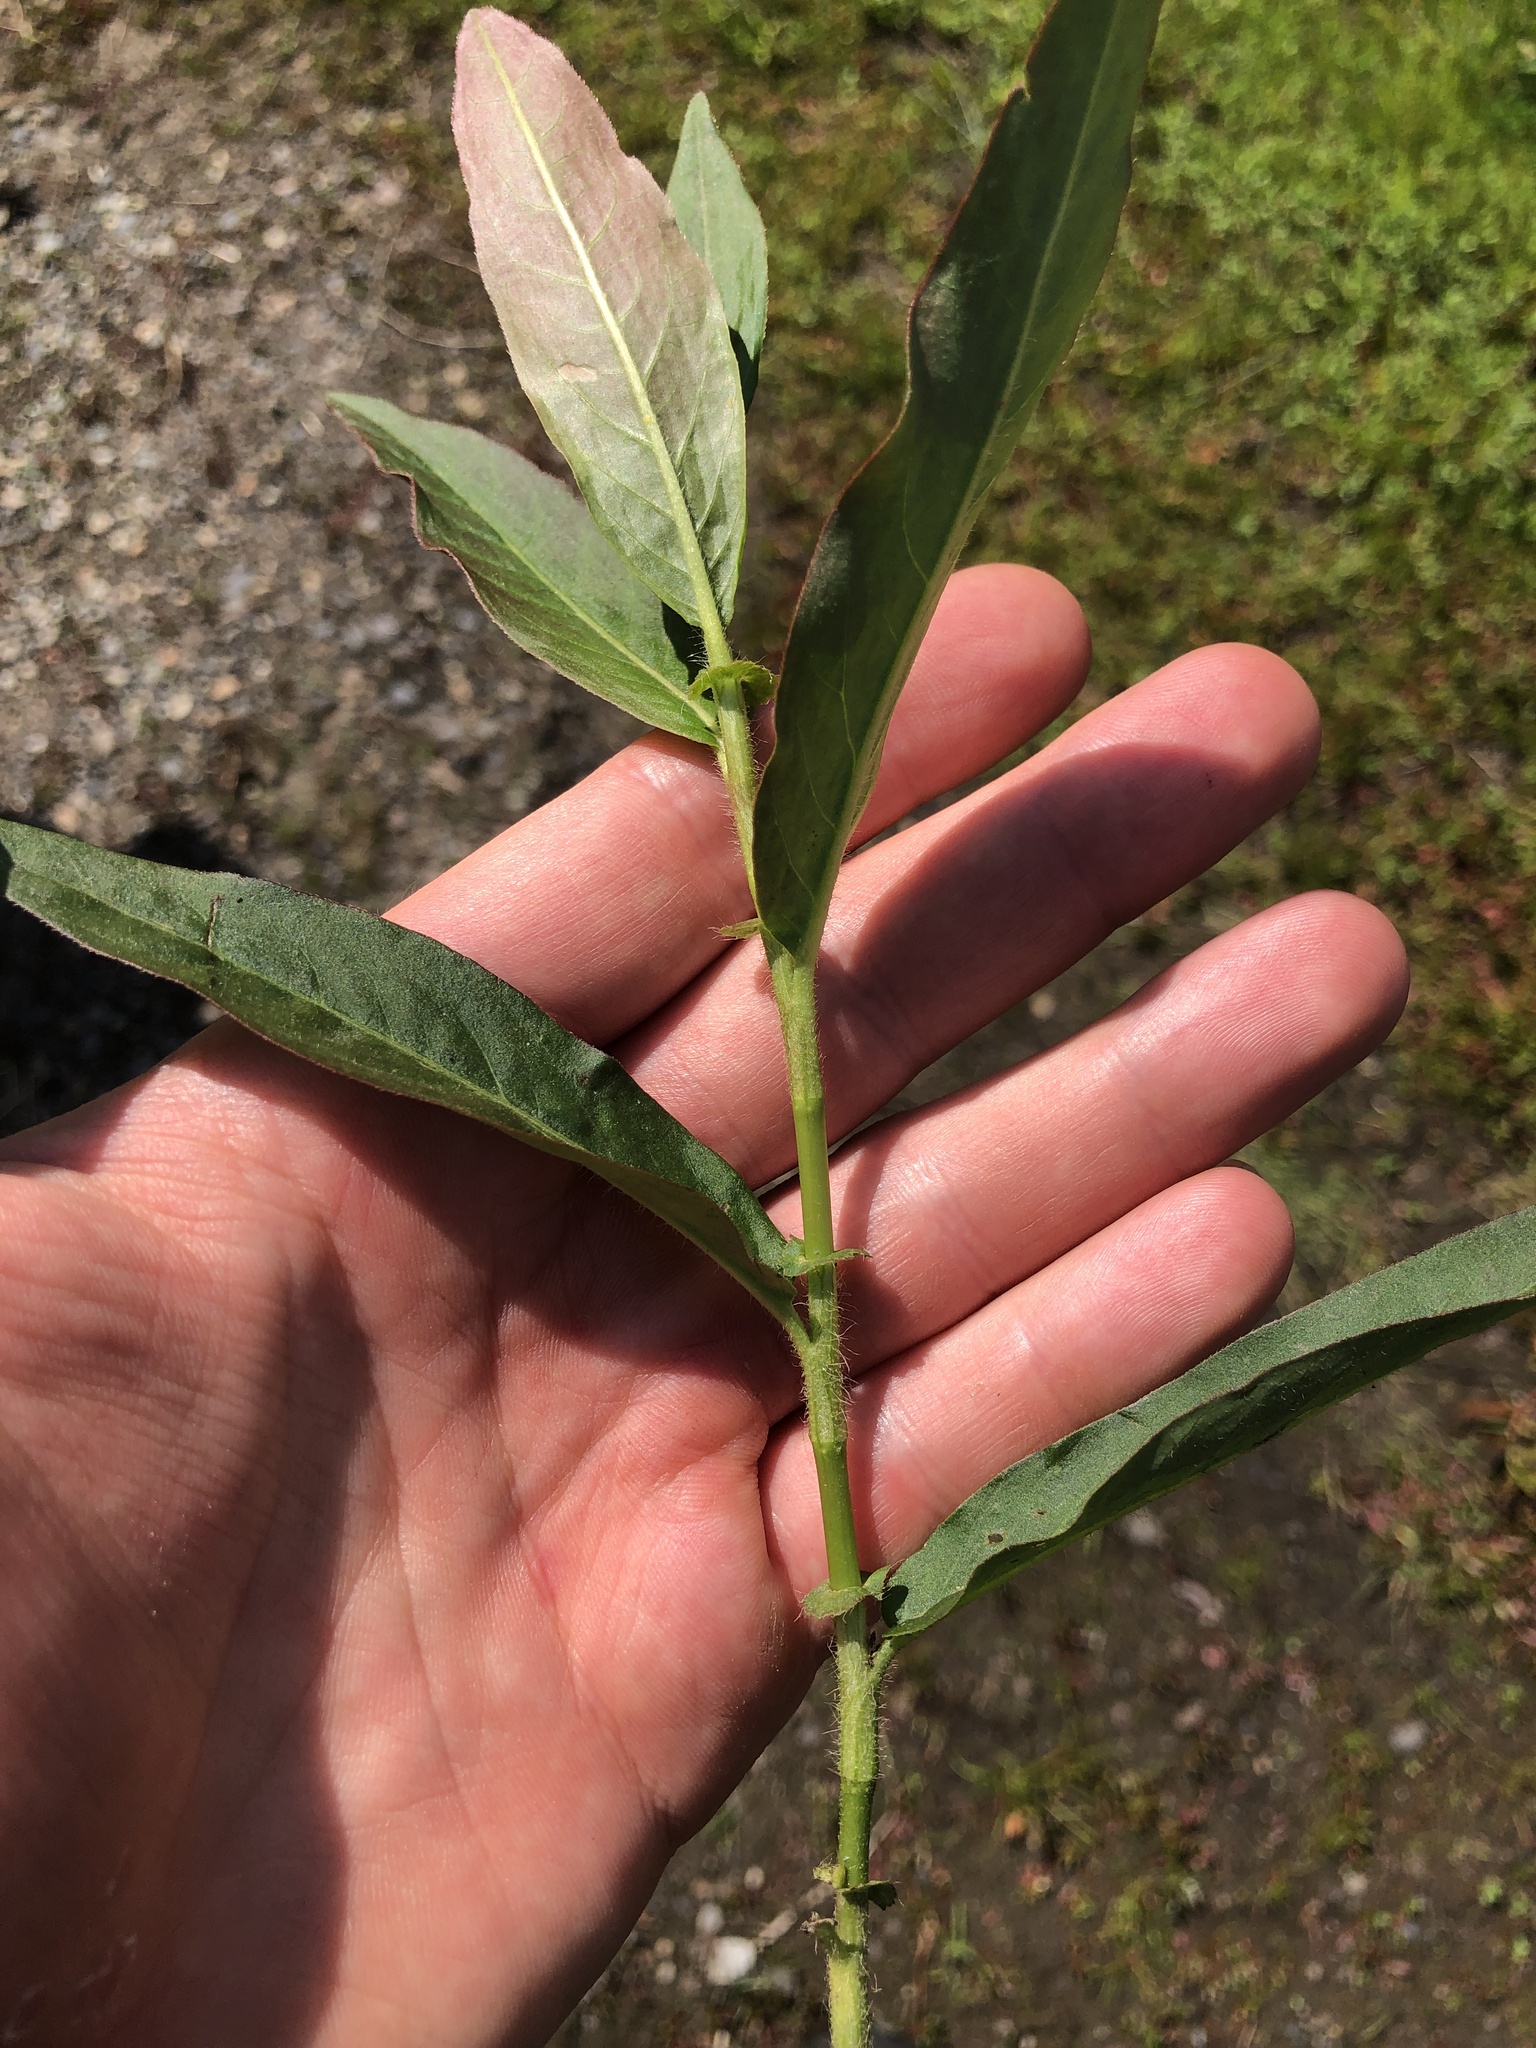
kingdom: Plantae
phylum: Tracheophyta
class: Magnoliopsida
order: Caryophyllales
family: Polygonaceae
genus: Persicaria
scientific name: Persicaria amphibia
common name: Amphibious bistort
